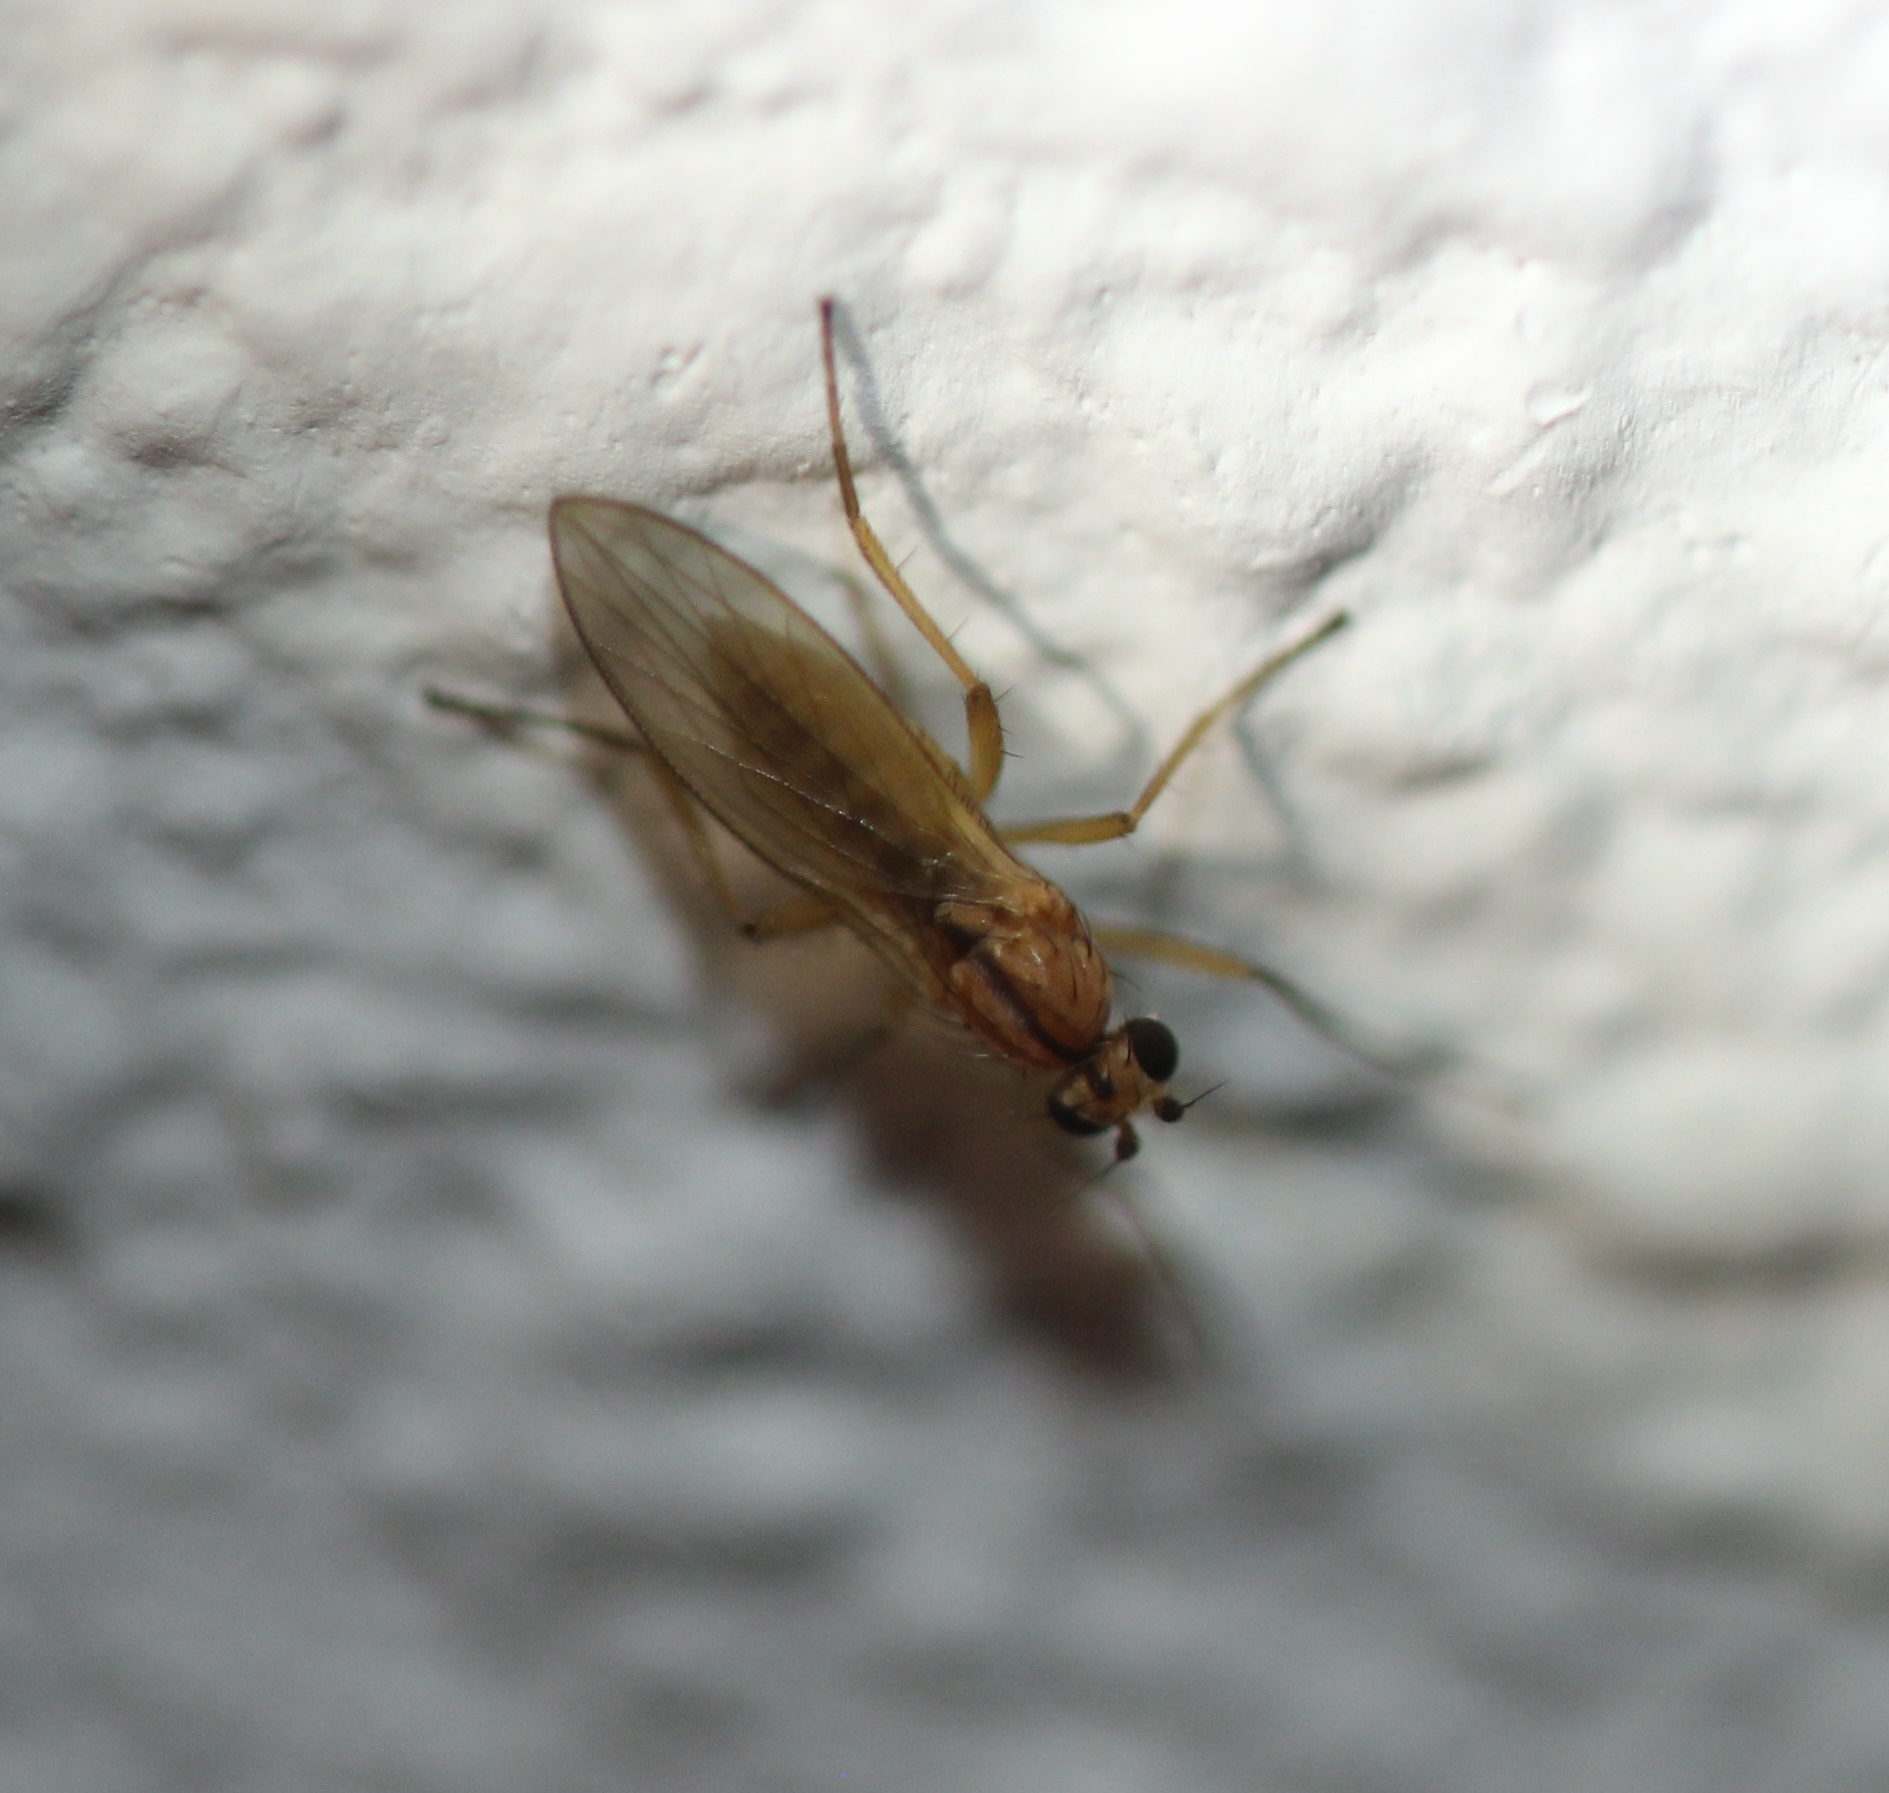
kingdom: Animalia
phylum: Arthropoda
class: Insecta
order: Diptera
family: Lonchopteridae
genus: Lonchoptera
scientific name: Lonchoptera bifurcata
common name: Spear-winged fly
